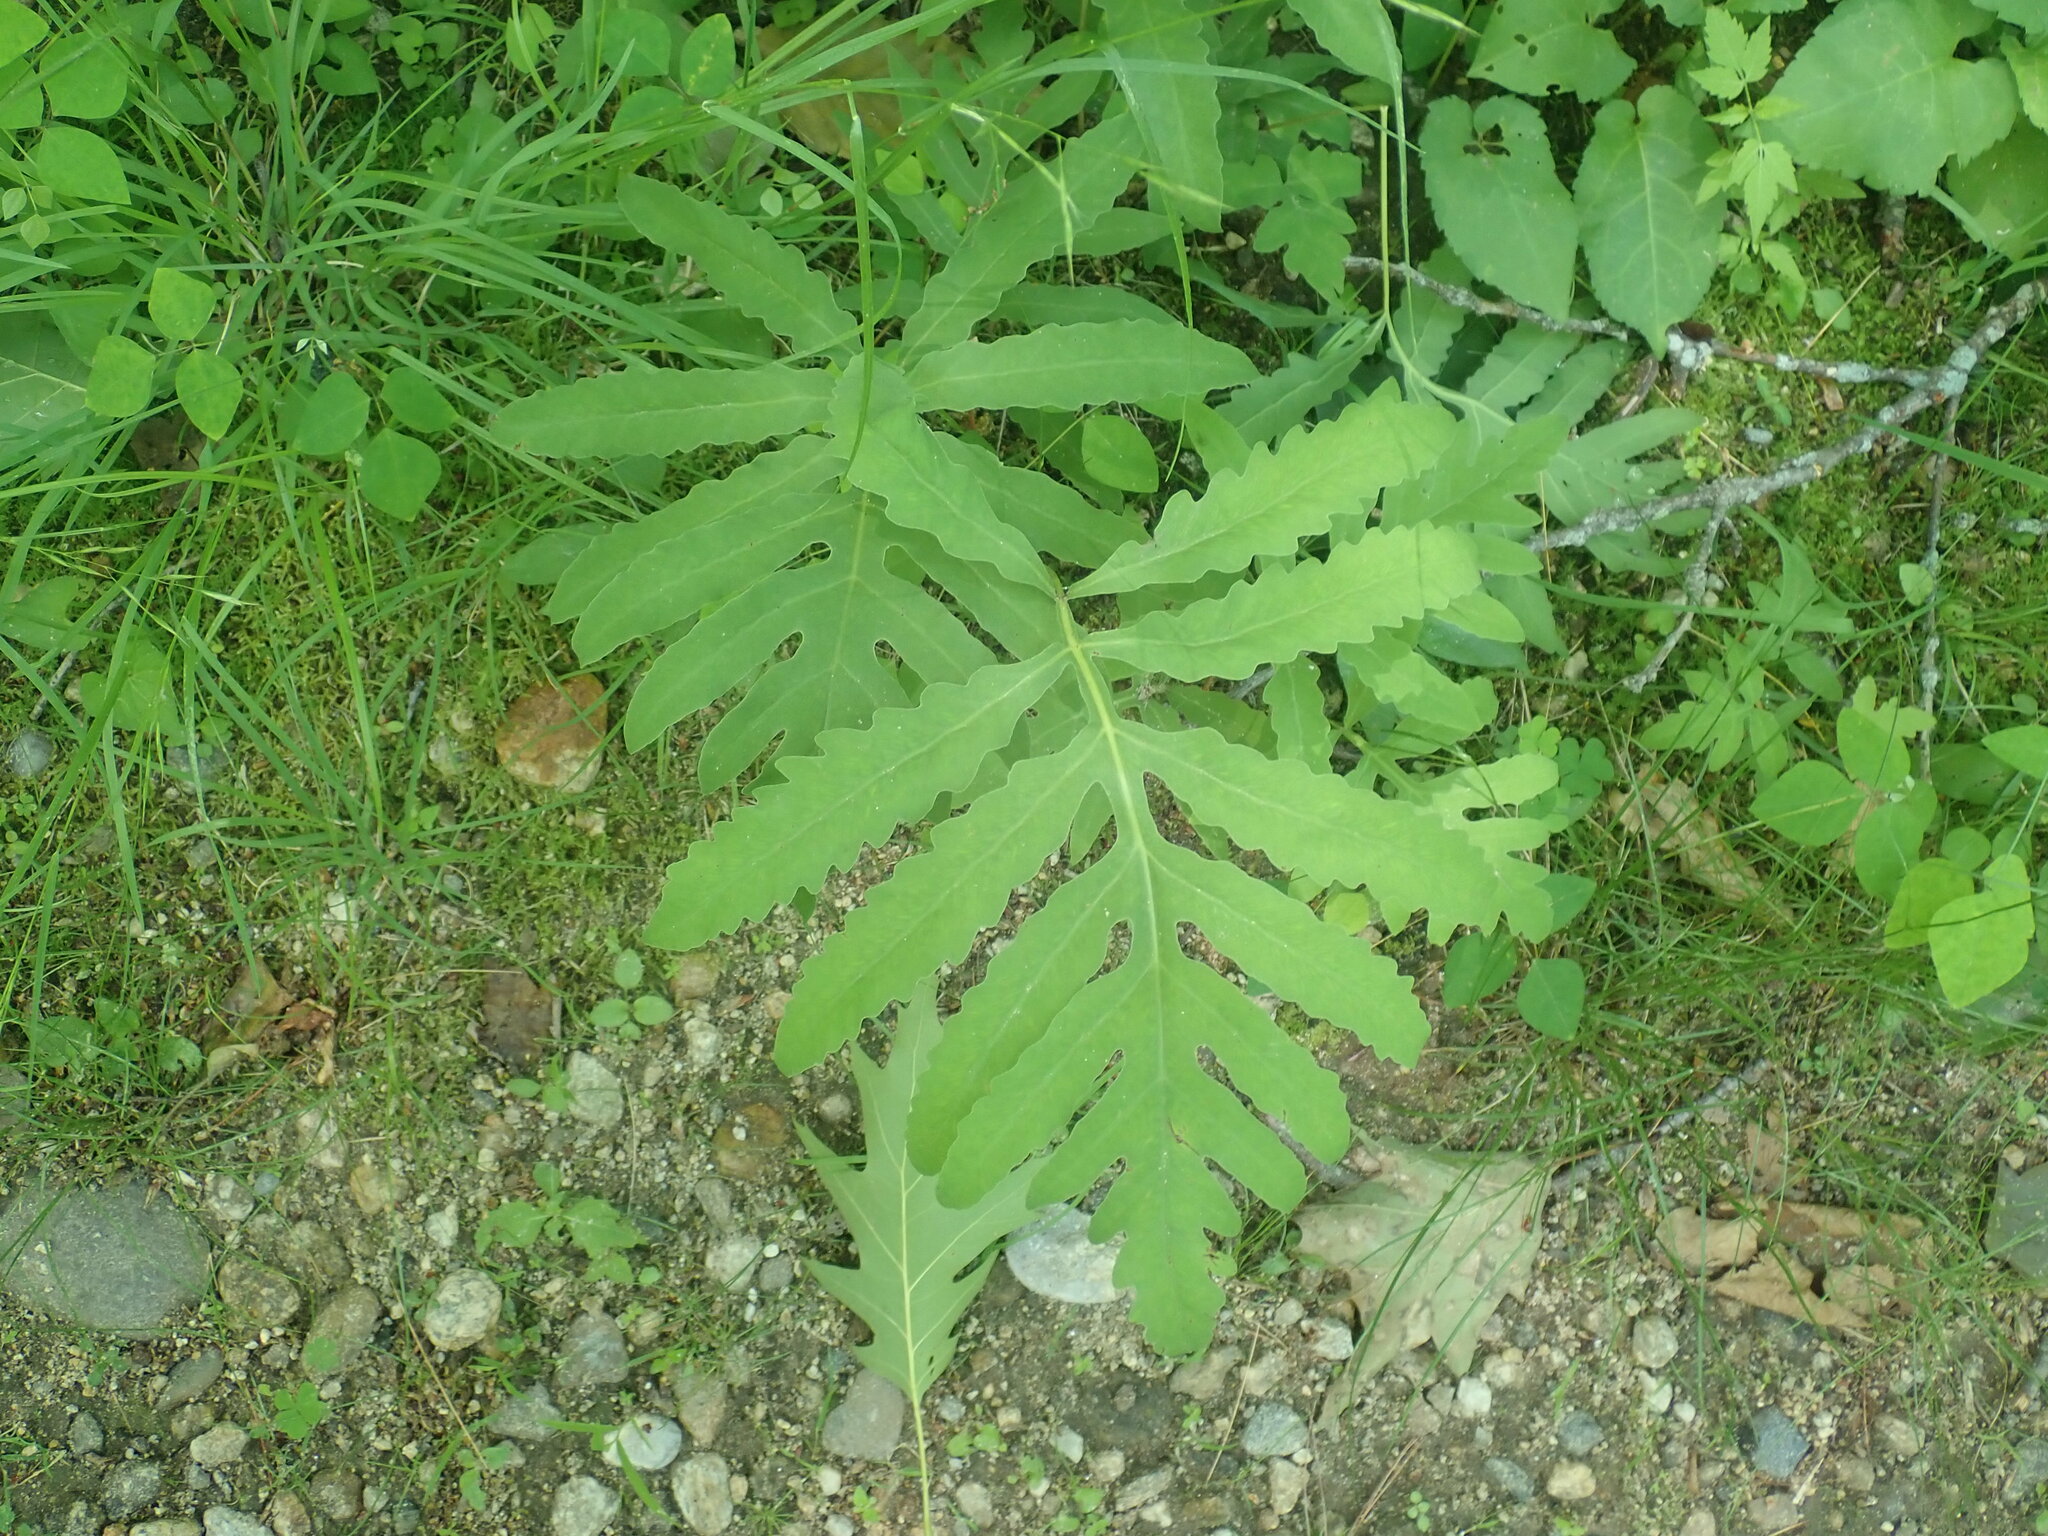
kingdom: Plantae
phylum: Tracheophyta
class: Polypodiopsida
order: Polypodiales
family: Onocleaceae
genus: Onoclea
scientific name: Onoclea sensibilis
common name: Sensitive fern
